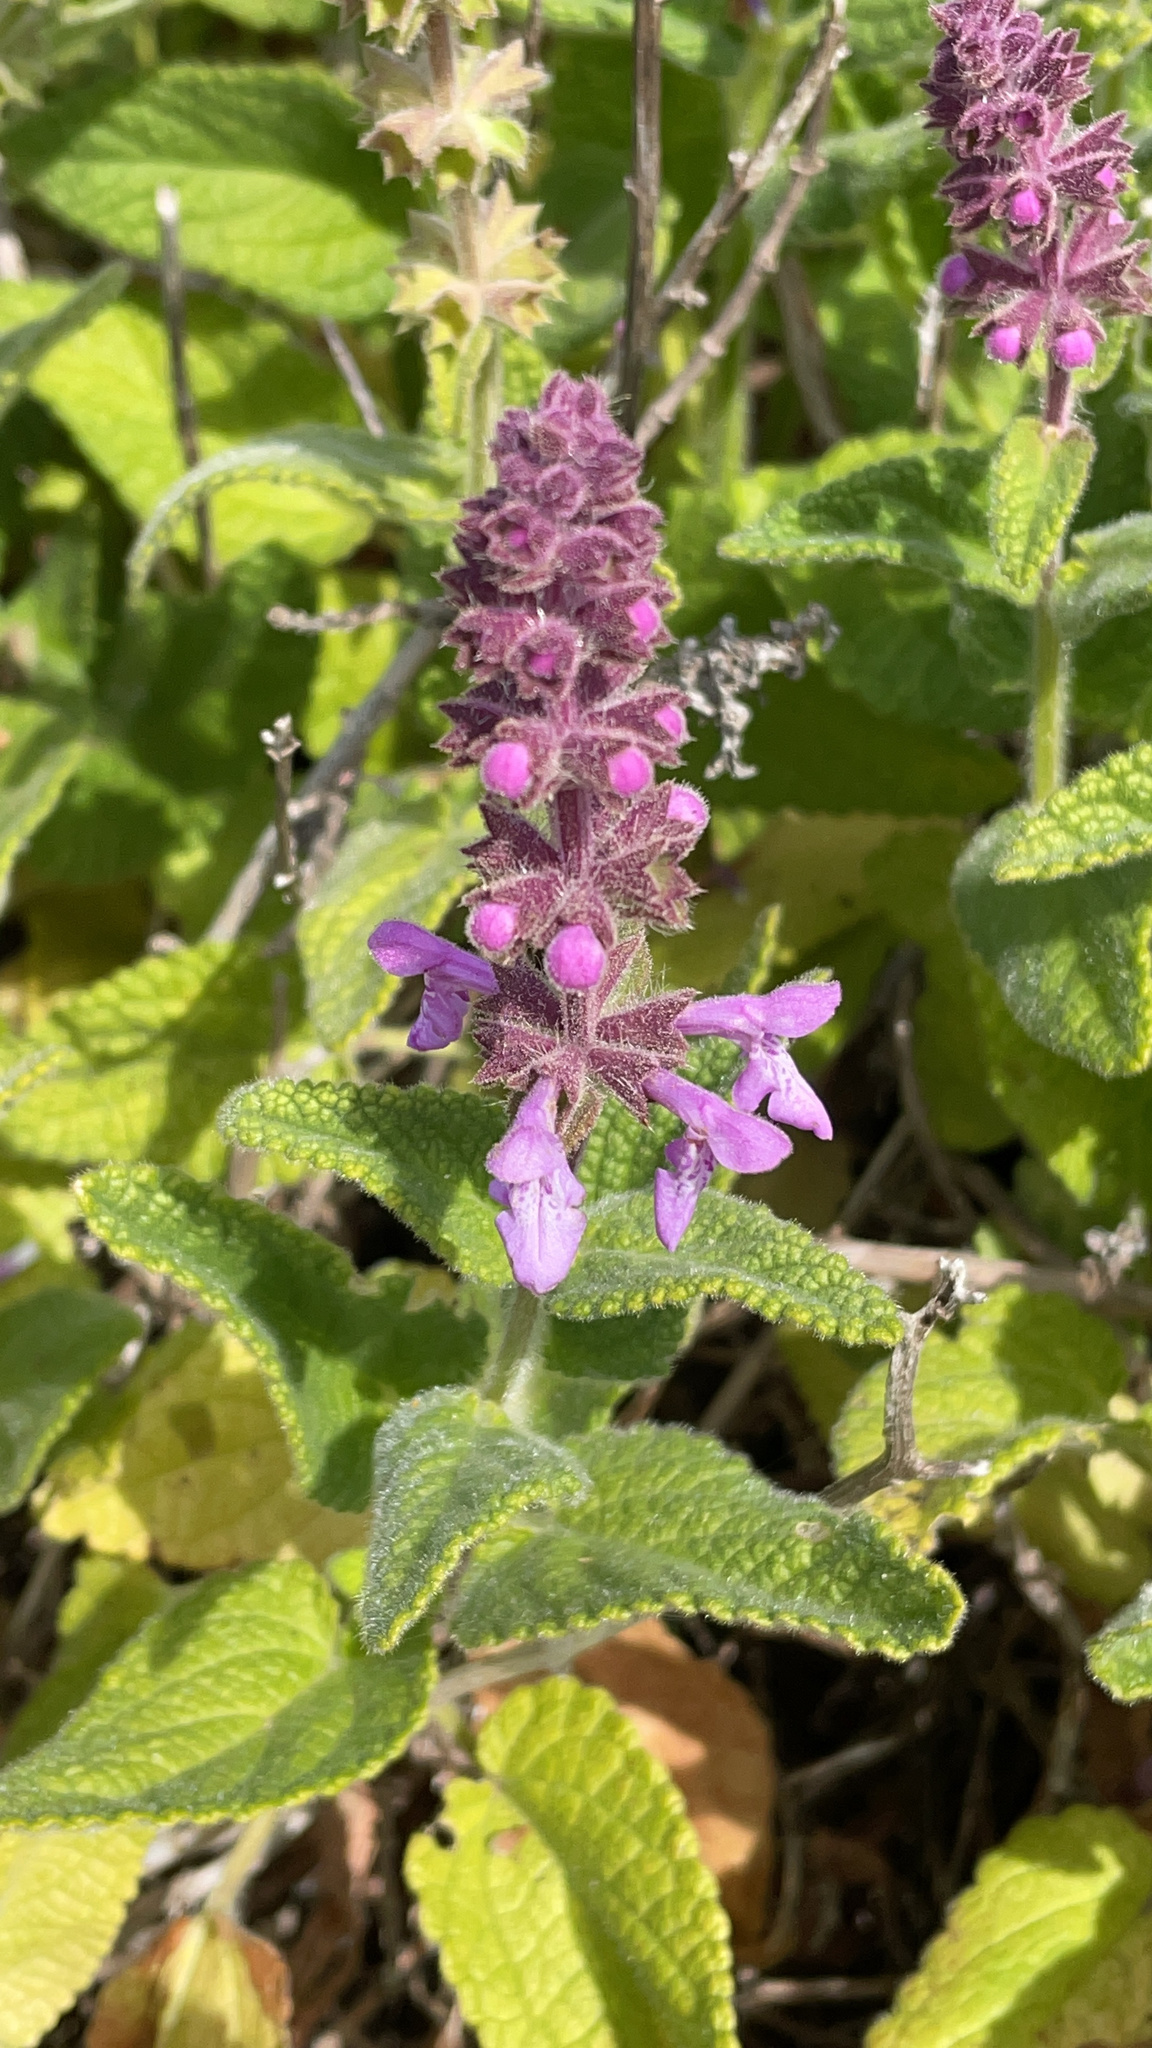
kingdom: Plantae
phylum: Tracheophyta
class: Magnoliopsida
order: Lamiales
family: Lamiaceae
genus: Stachys
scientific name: Stachys bullata
